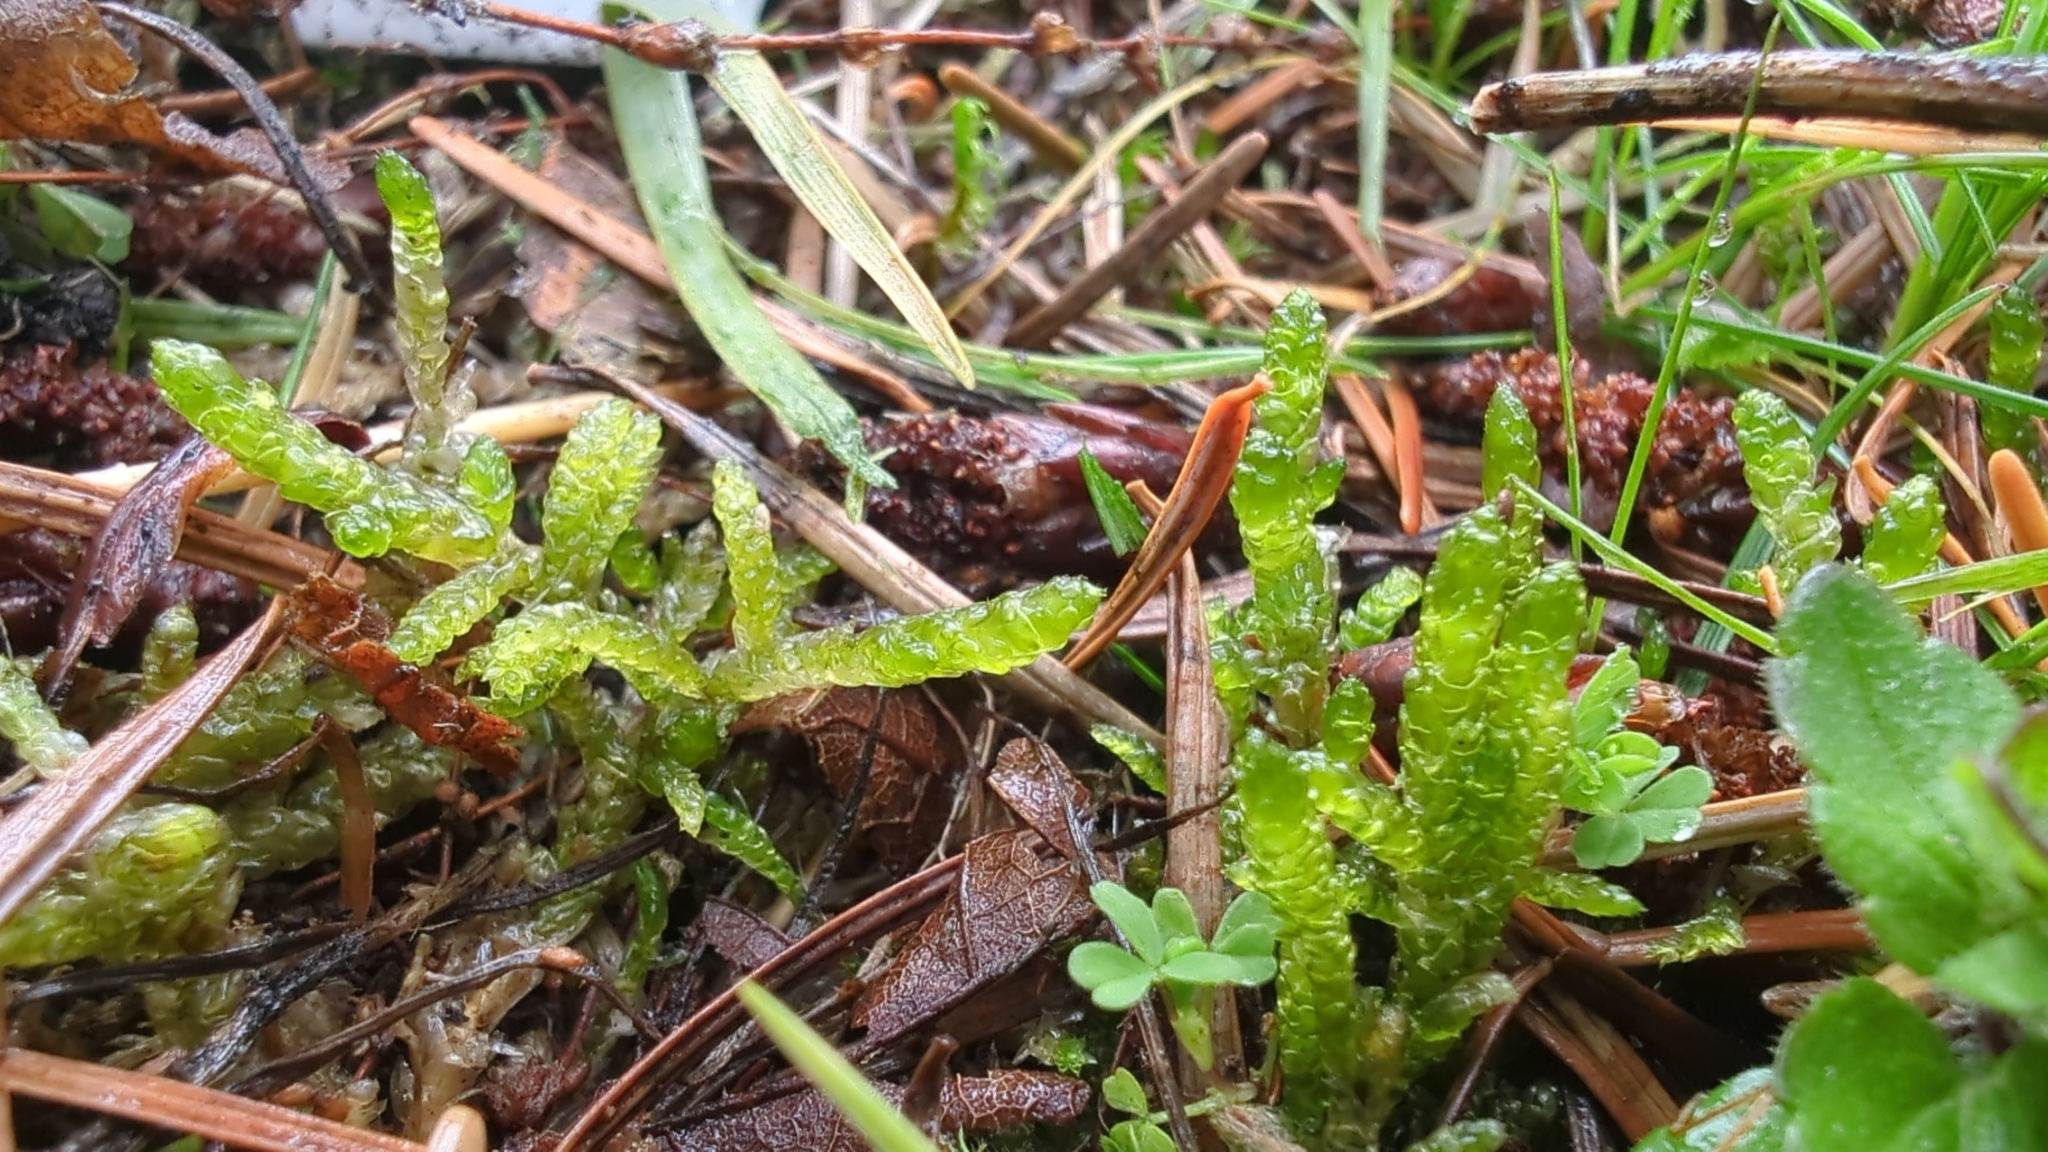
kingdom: Plantae
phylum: Bryophyta
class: Bryopsida
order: Hypnales
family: Brachytheciaceae
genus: Pseudoscleropodium
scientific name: Pseudoscleropodium purum
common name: Neat feather-moss
